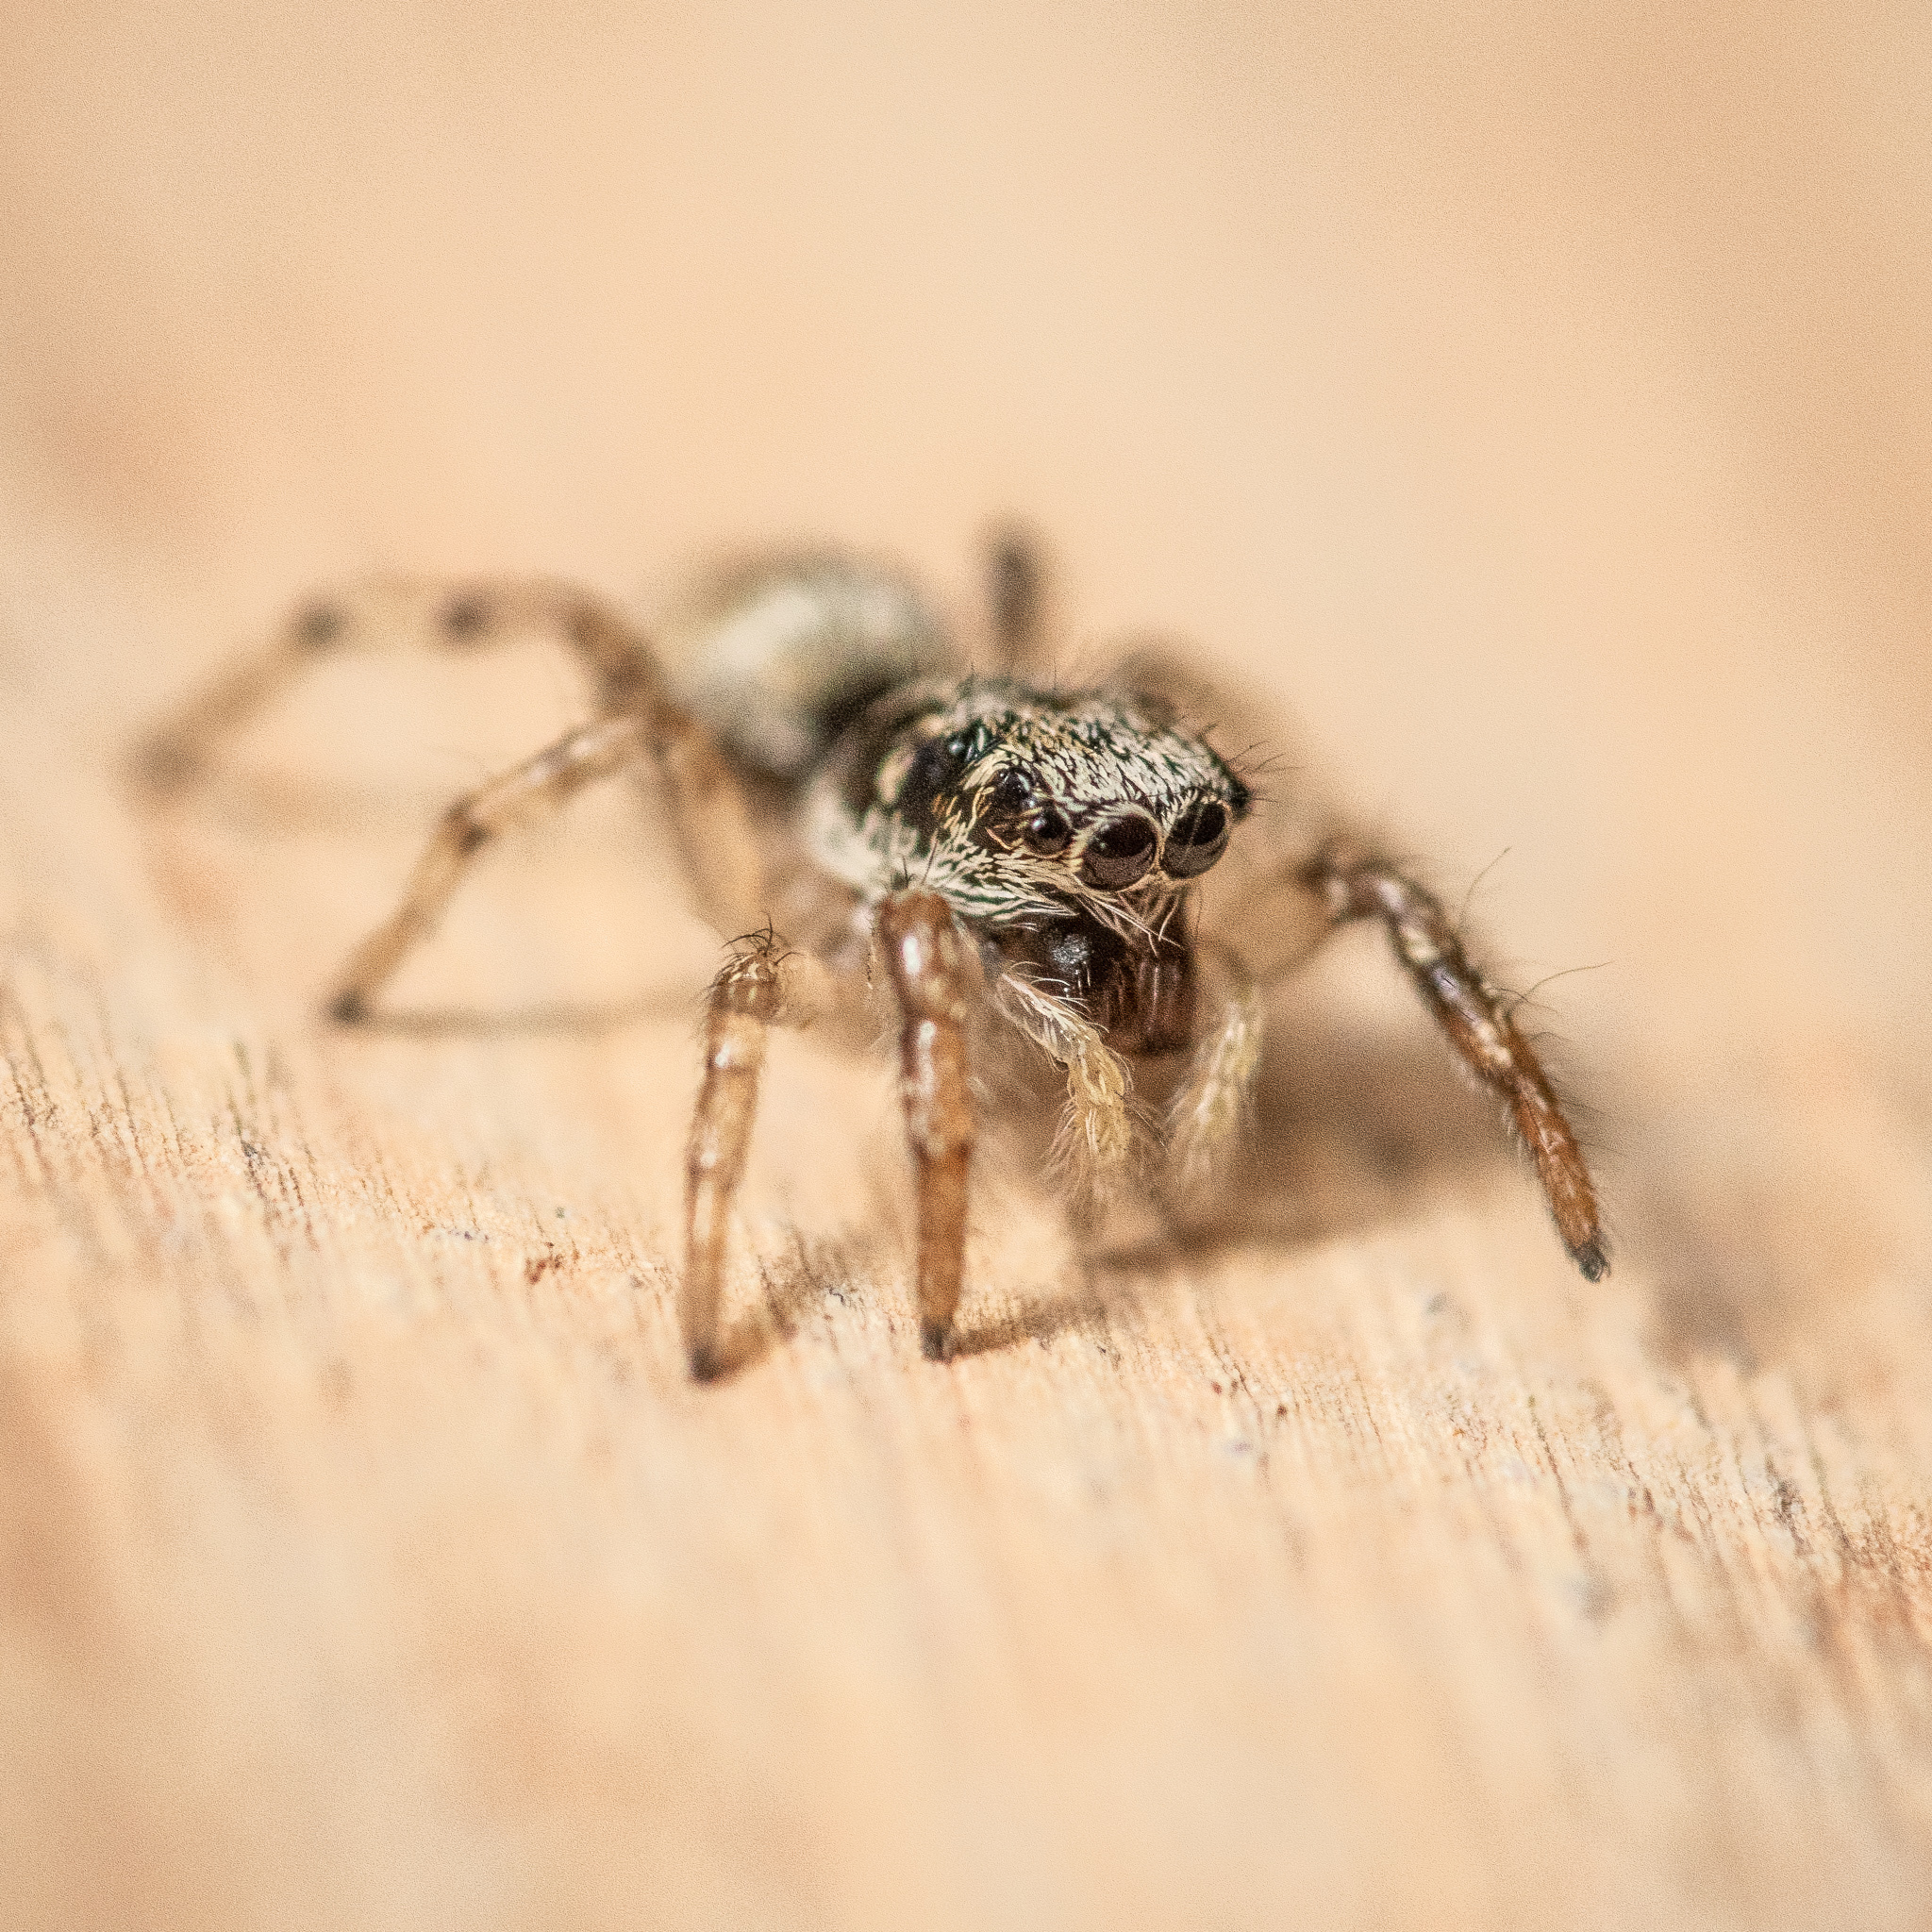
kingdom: Animalia
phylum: Arthropoda
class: Arachnida
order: Araneae
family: Salticidae
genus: Salticus
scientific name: Salticus scenicus
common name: Zebra jumper
